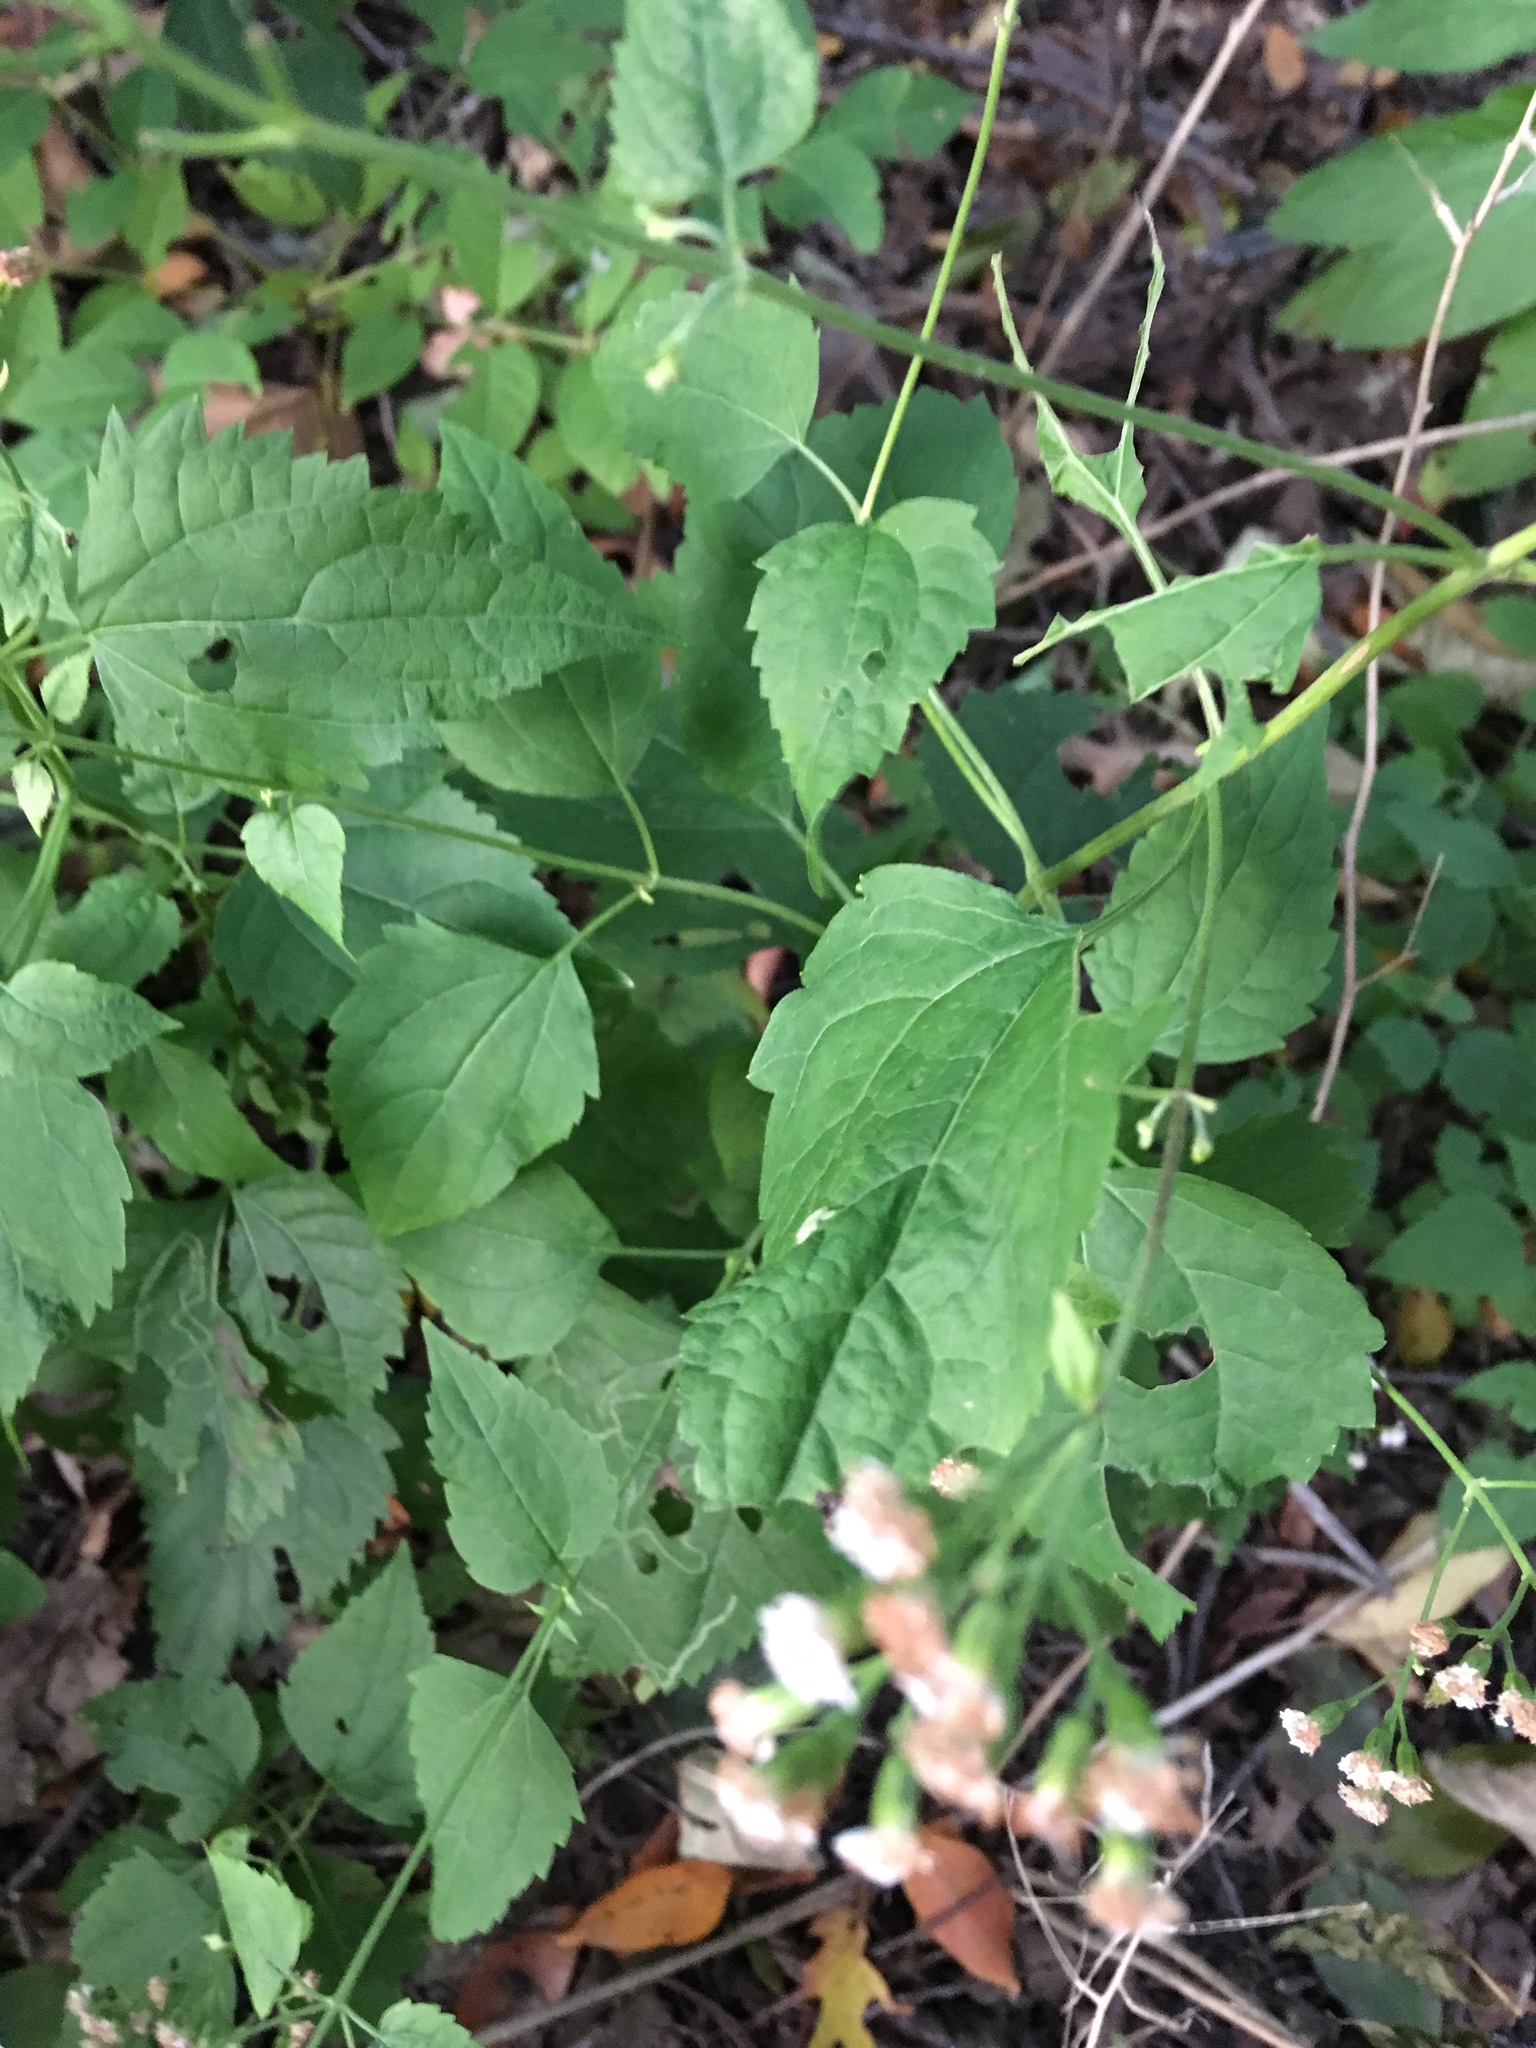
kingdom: Plantae
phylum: Tracheophyta
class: Magnoliopsida
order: Asterales
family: Asteraceae
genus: Ageratina
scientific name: Ageratina altissima
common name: White snakeroot
